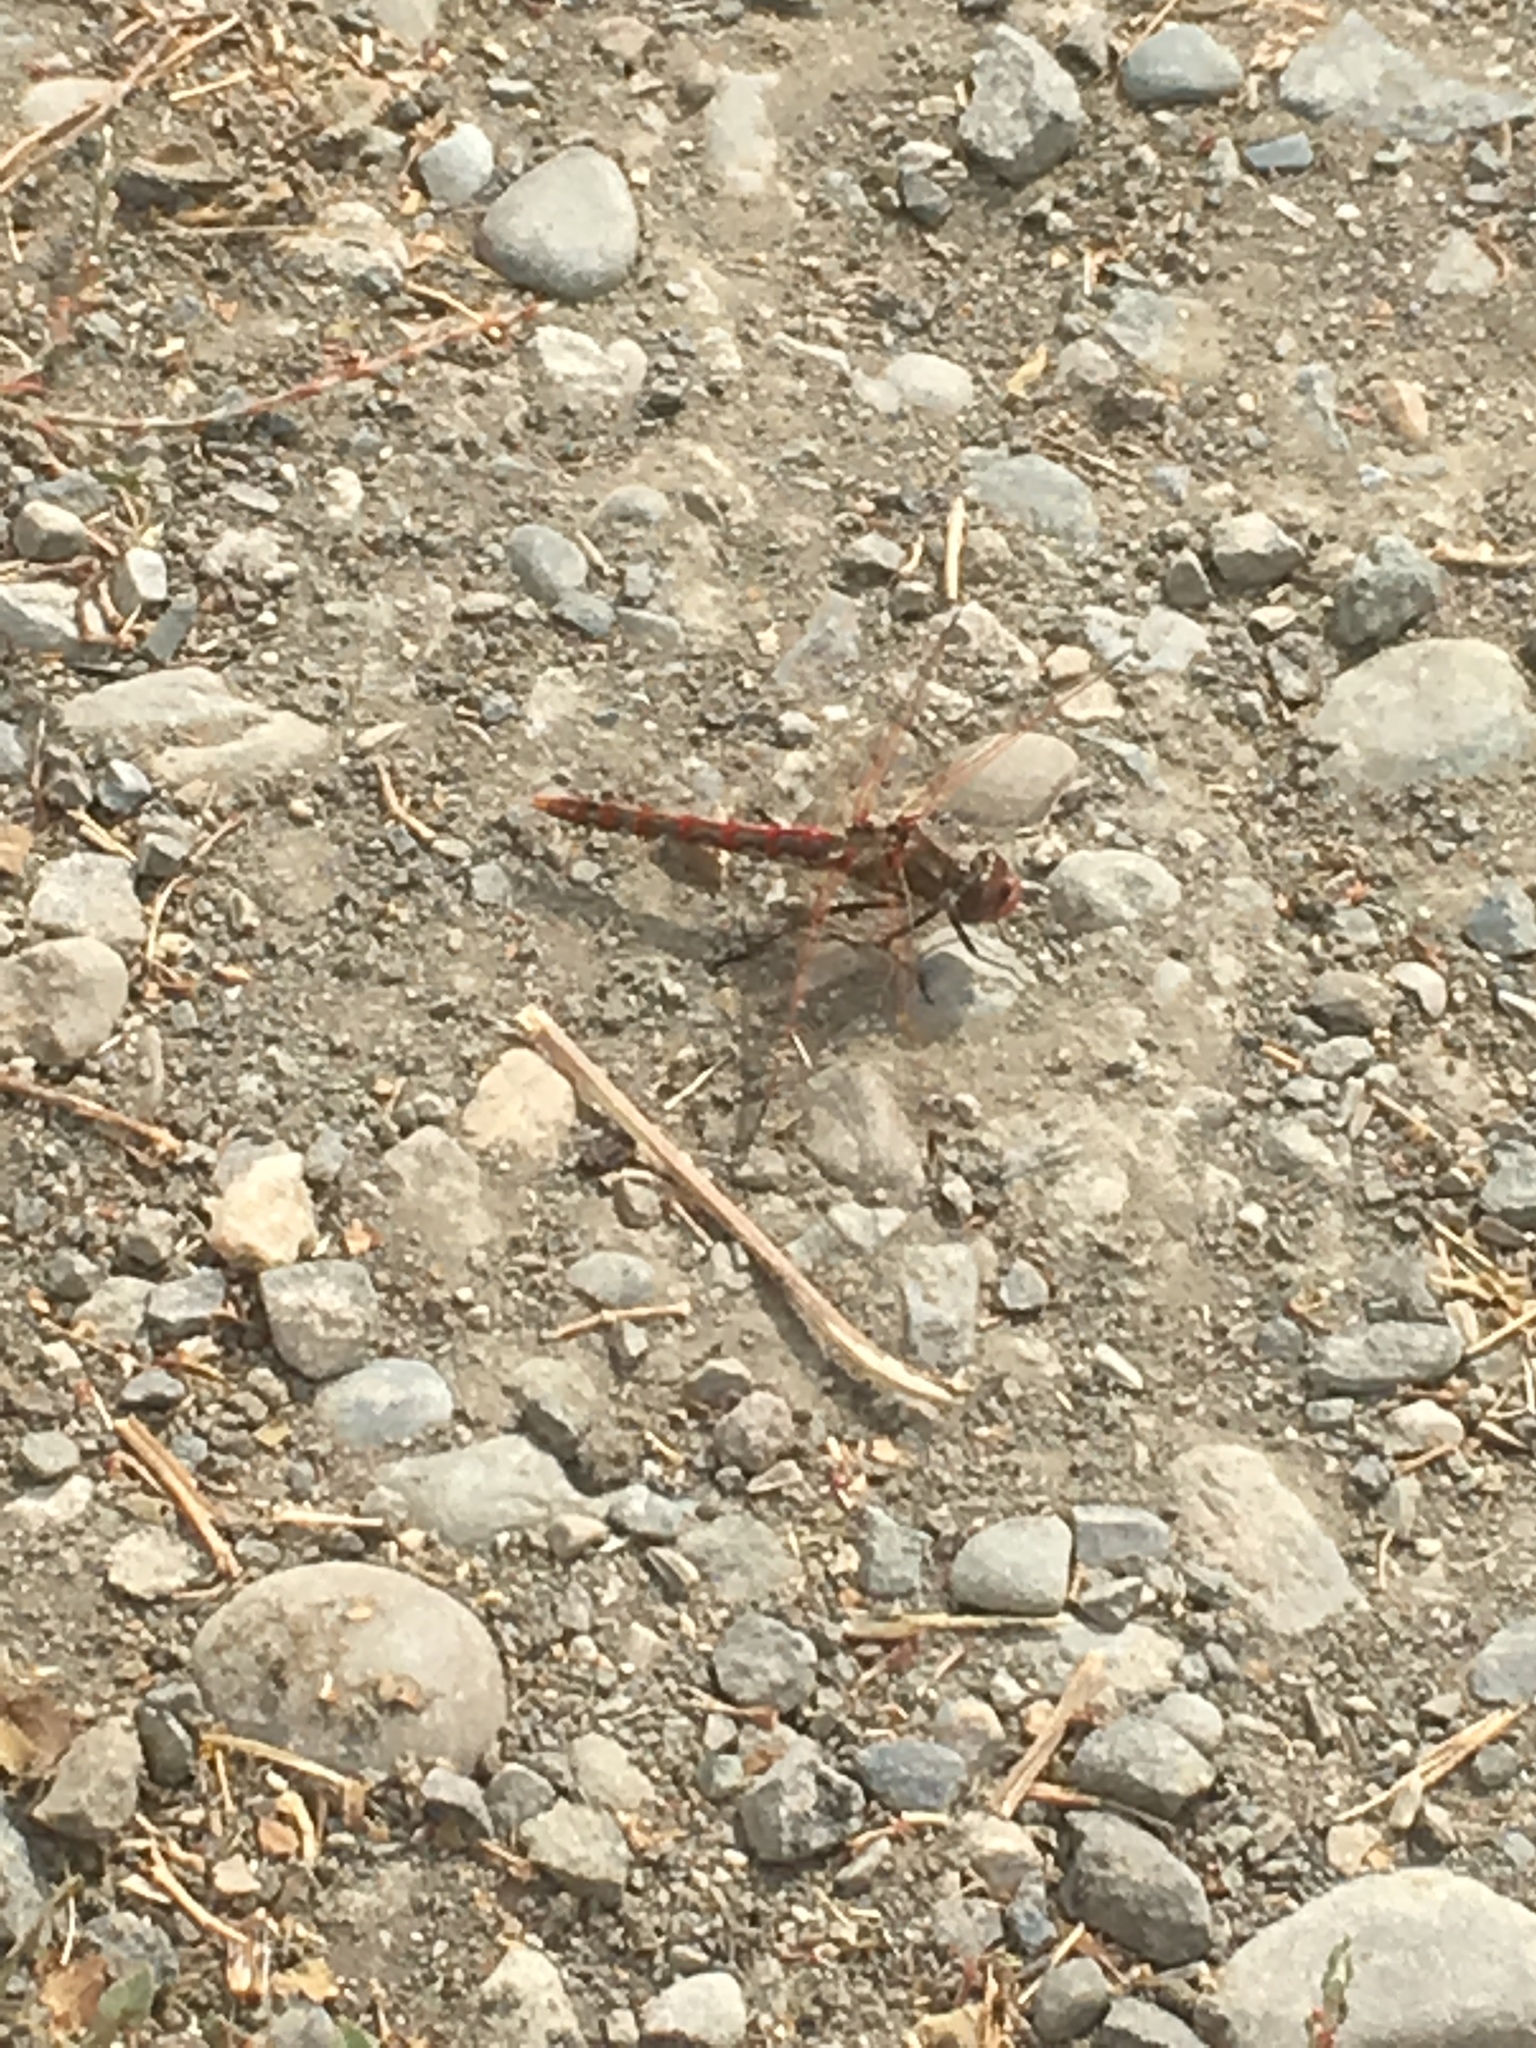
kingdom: Animalia
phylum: Arthropoda
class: Insecta
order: Odonata
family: Libellulidae
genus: Sympetrum
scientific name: Sympetrum corruptum
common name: Variegated meadowhawk
